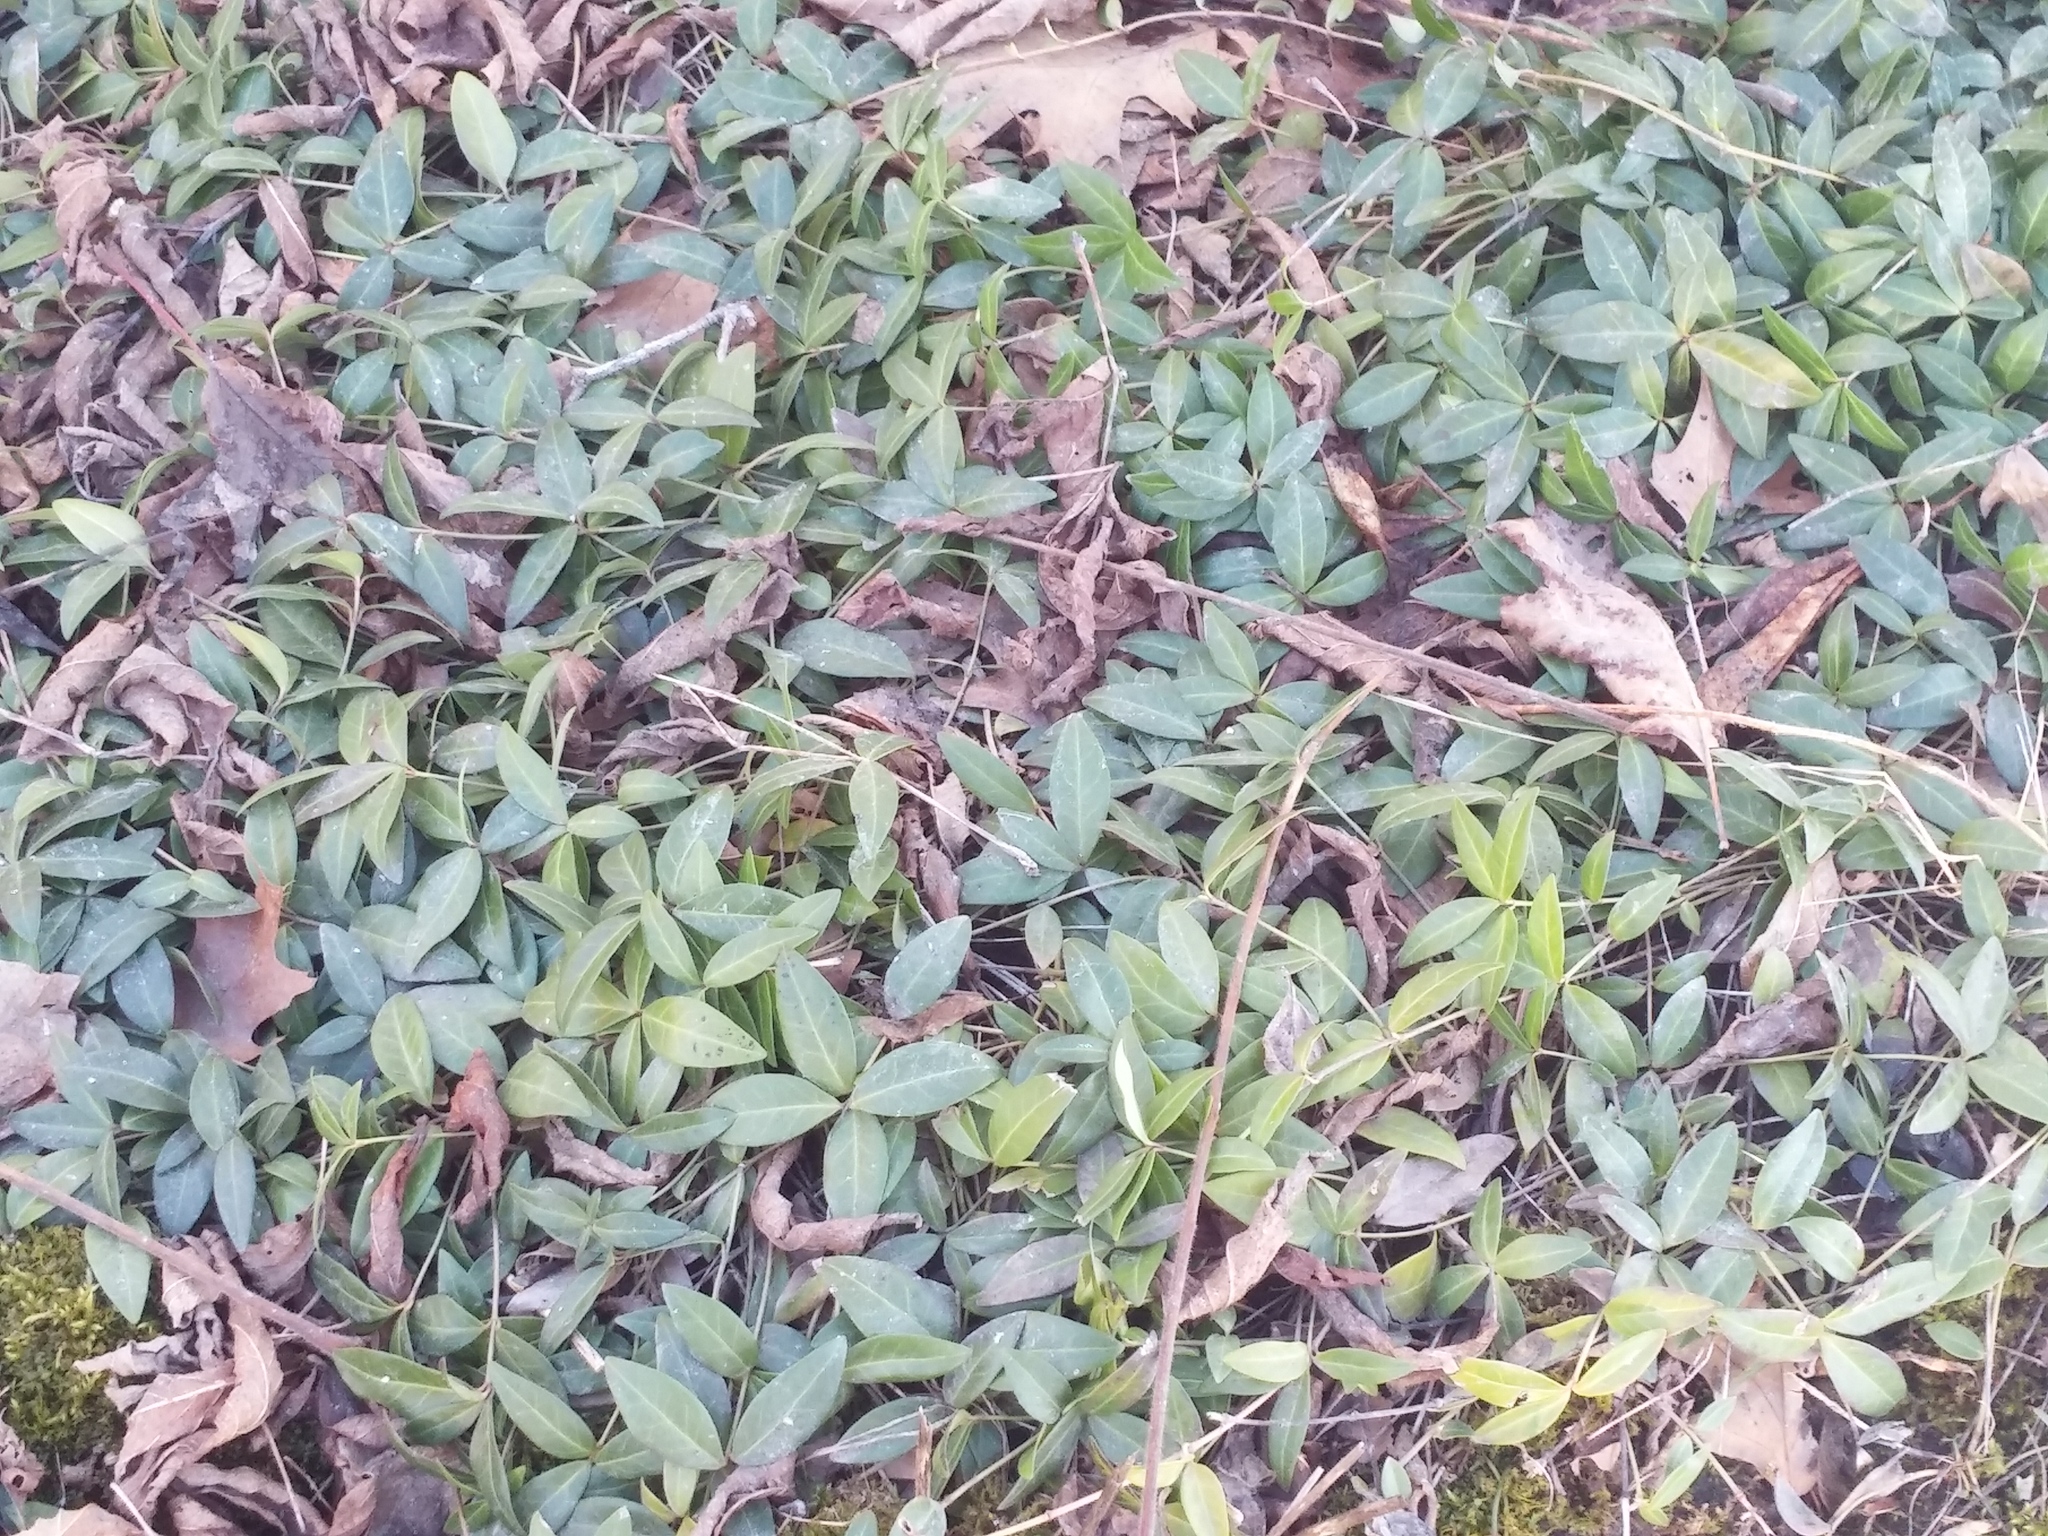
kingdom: Plantae
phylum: Tracheophyta
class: Magnoliopsida
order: Gentianales
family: Apocynaceae
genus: Vinca
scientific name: Vinca minor
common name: Lesser periwinkle
